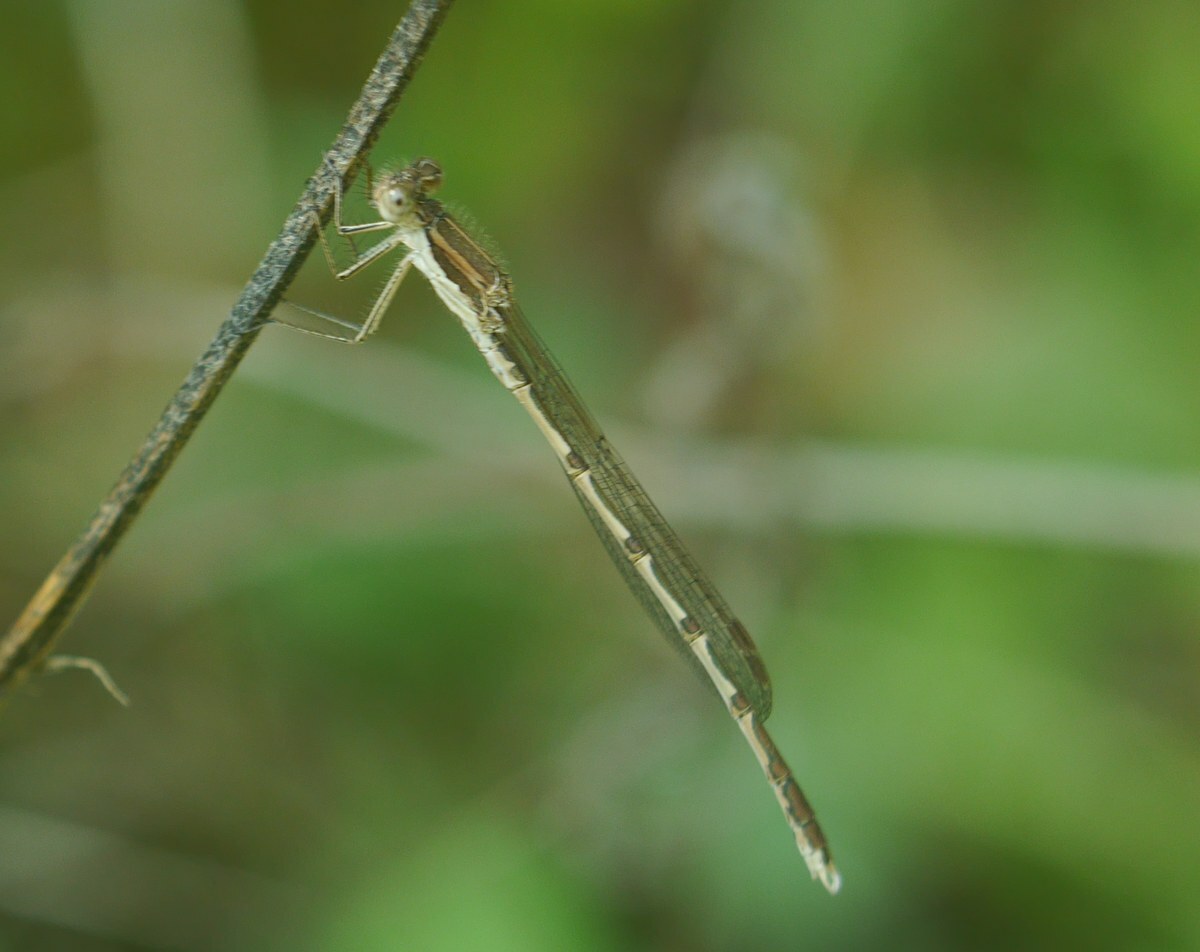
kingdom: Animalia
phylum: Arthropoda
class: Insecta
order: Odonata
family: Lestidae
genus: Sympecma
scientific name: Sympecma fusca
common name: Common winter damsel
